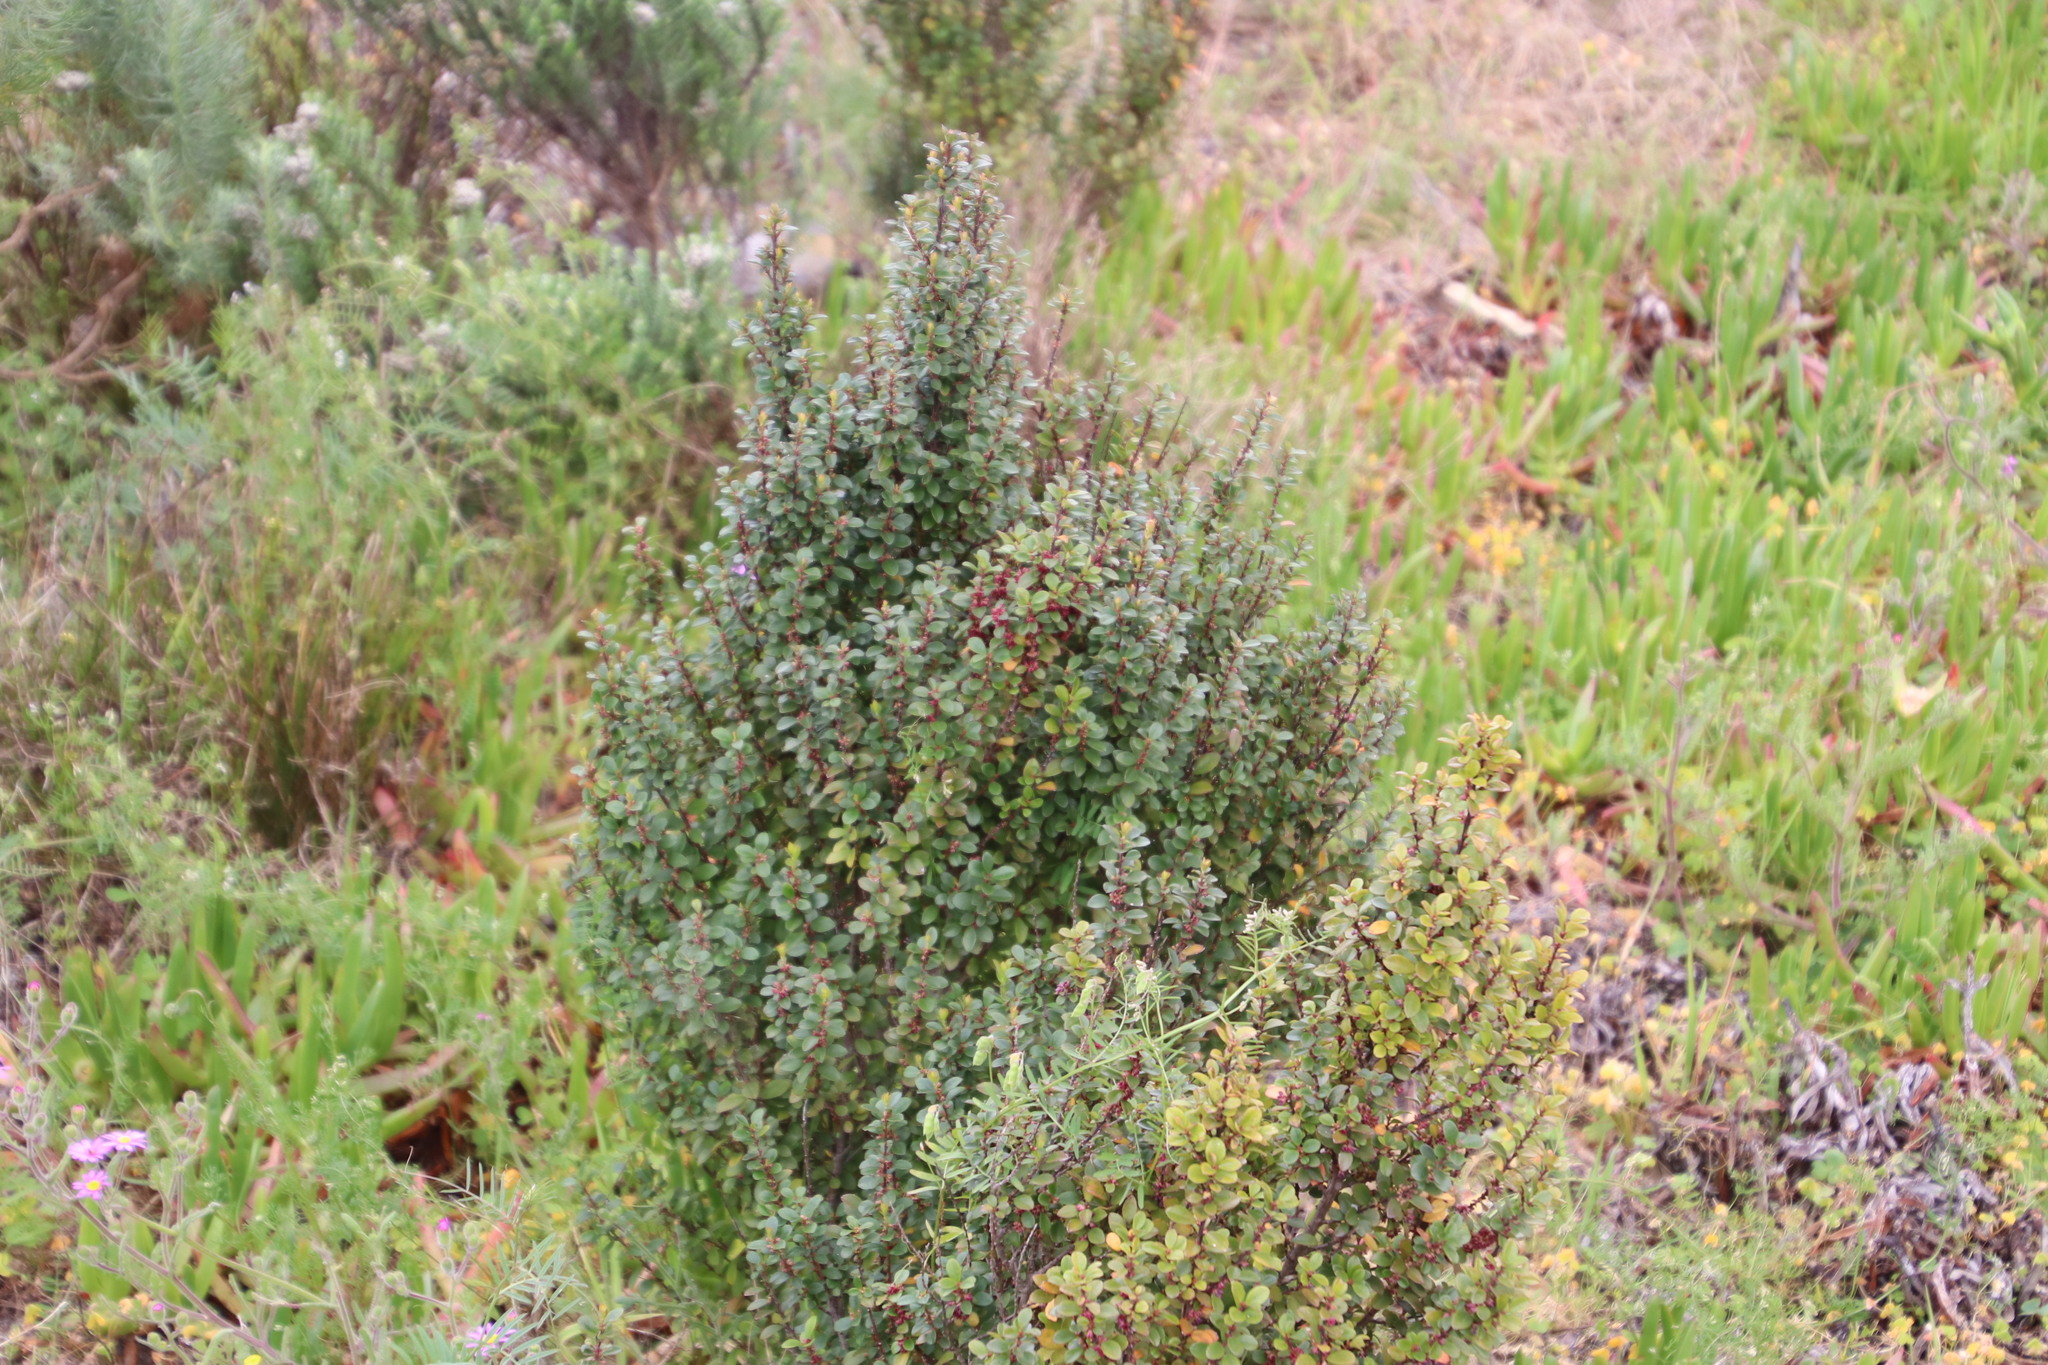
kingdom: Plantae
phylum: Tracheophyta
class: Magnoliopsida
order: Ericales
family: Primulaceae
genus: Myrsine
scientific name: Myrsine africana
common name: African-boxwood
